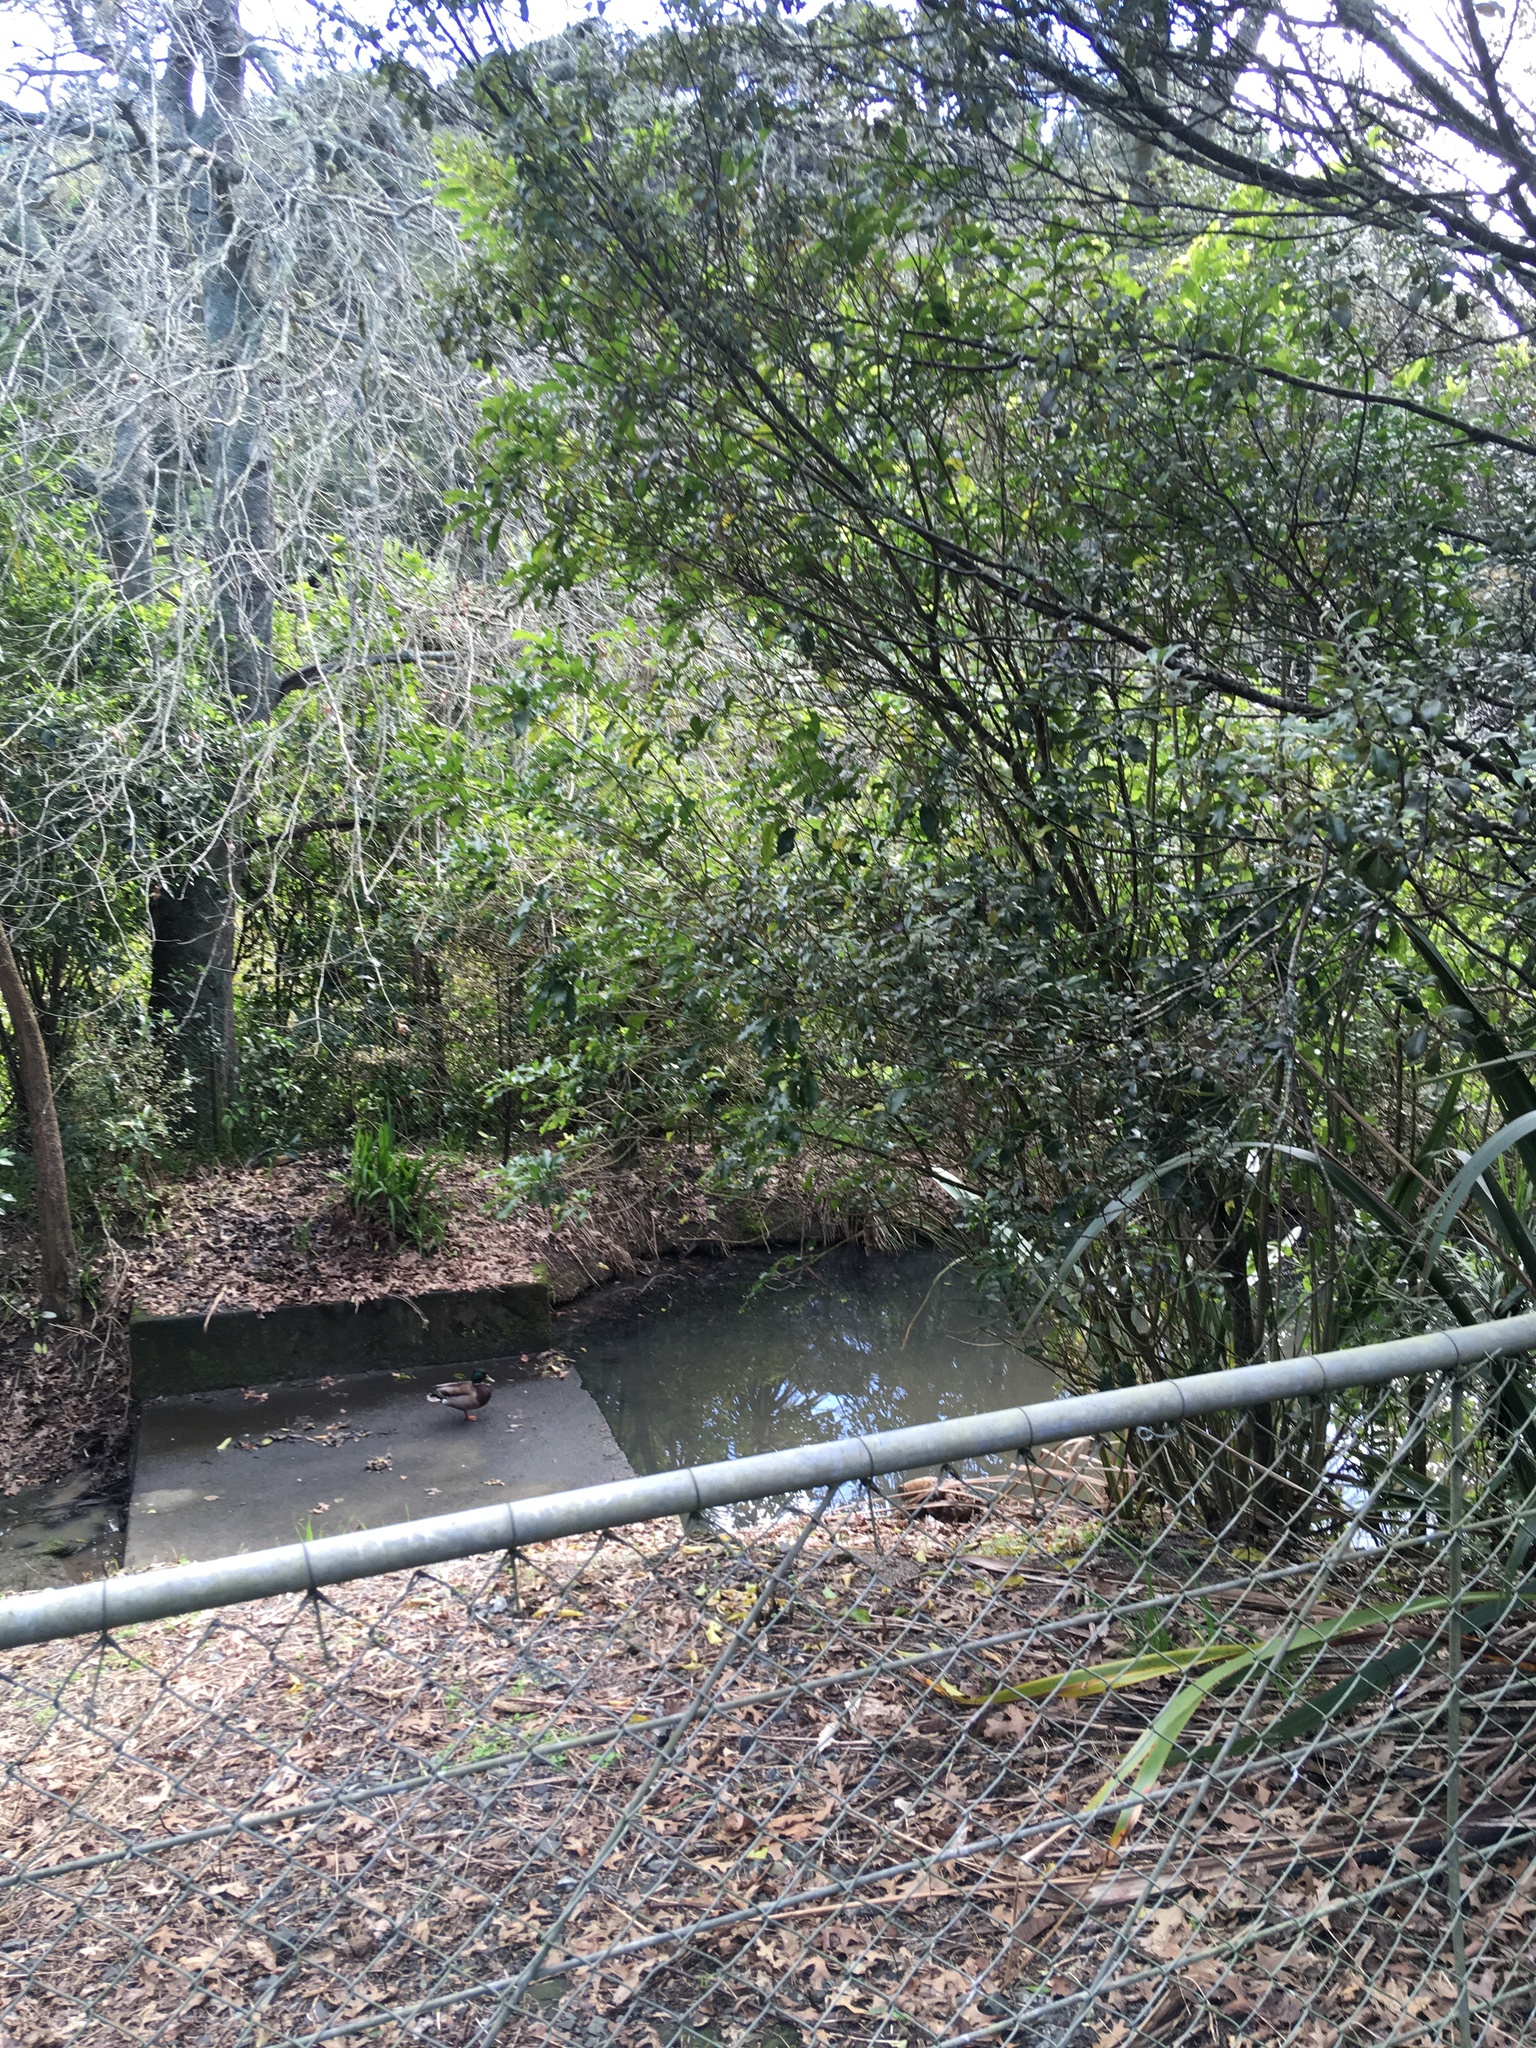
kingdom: Animalia
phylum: Chordata
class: Aves
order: Anseriformes
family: Anatidae
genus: Anas
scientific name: Anas platyrhynchos
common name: Mallard
